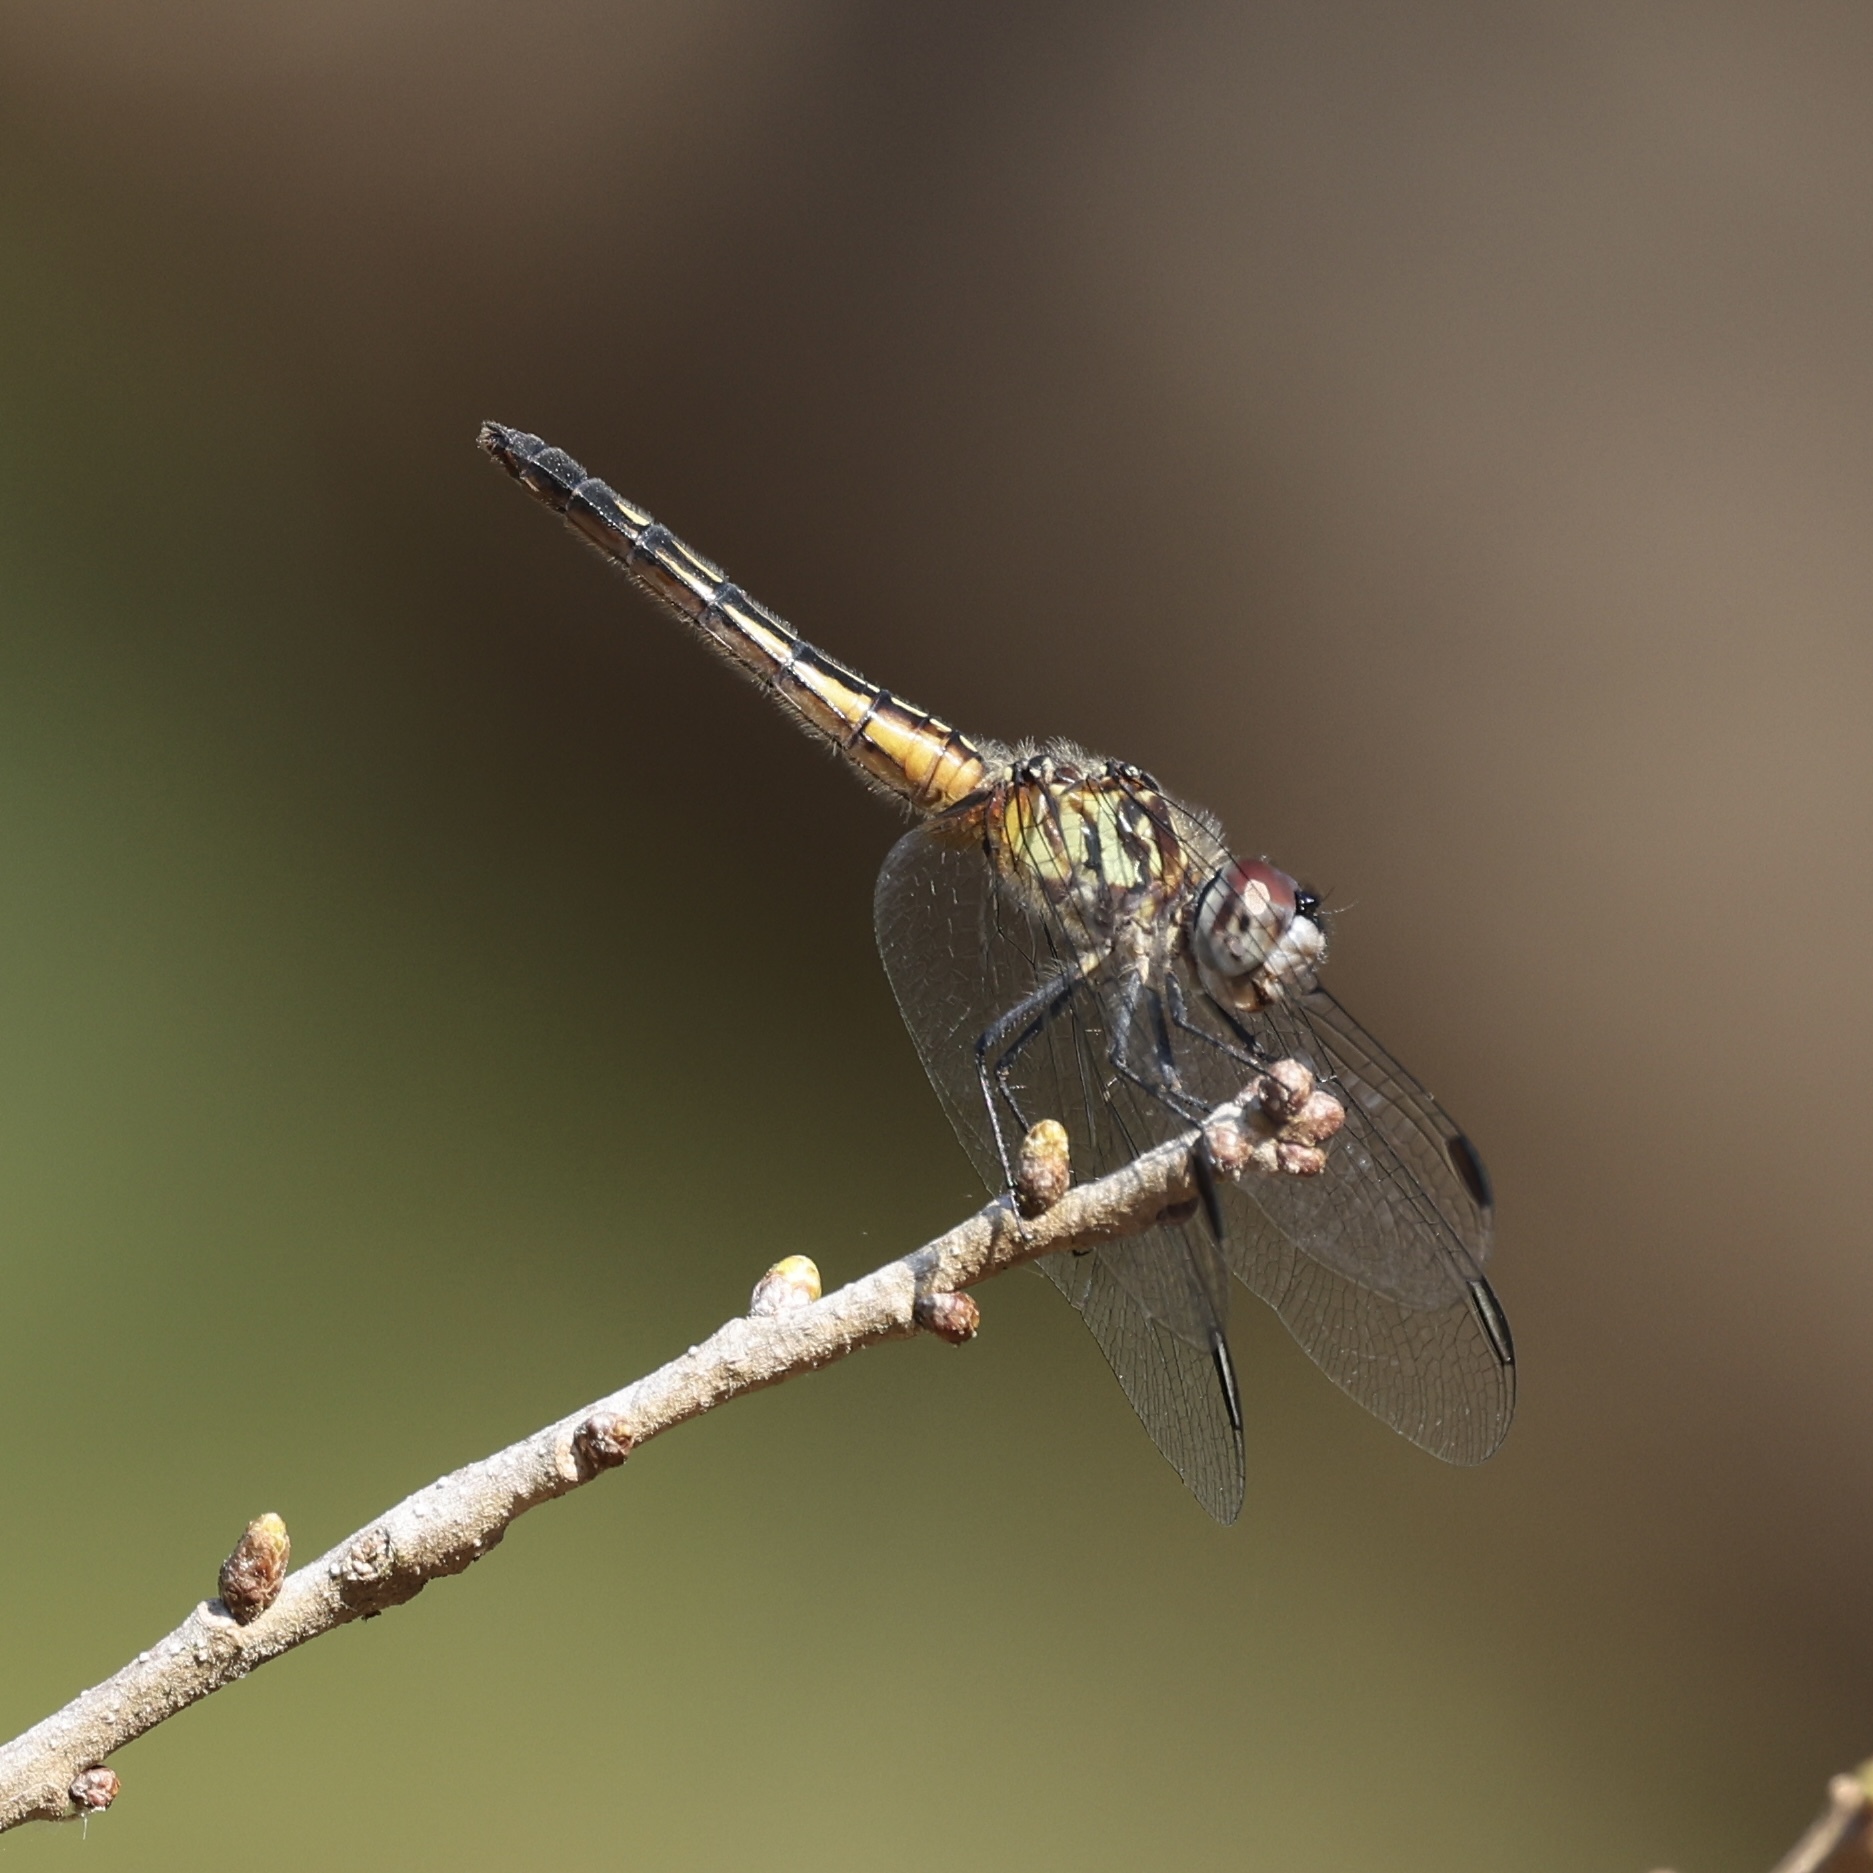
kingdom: Animalia
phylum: Arthropoda
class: Insecta
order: Odonata
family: Libellulidae
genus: Pachydiplax
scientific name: Pachydiplax longipennis
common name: Blue dasher
